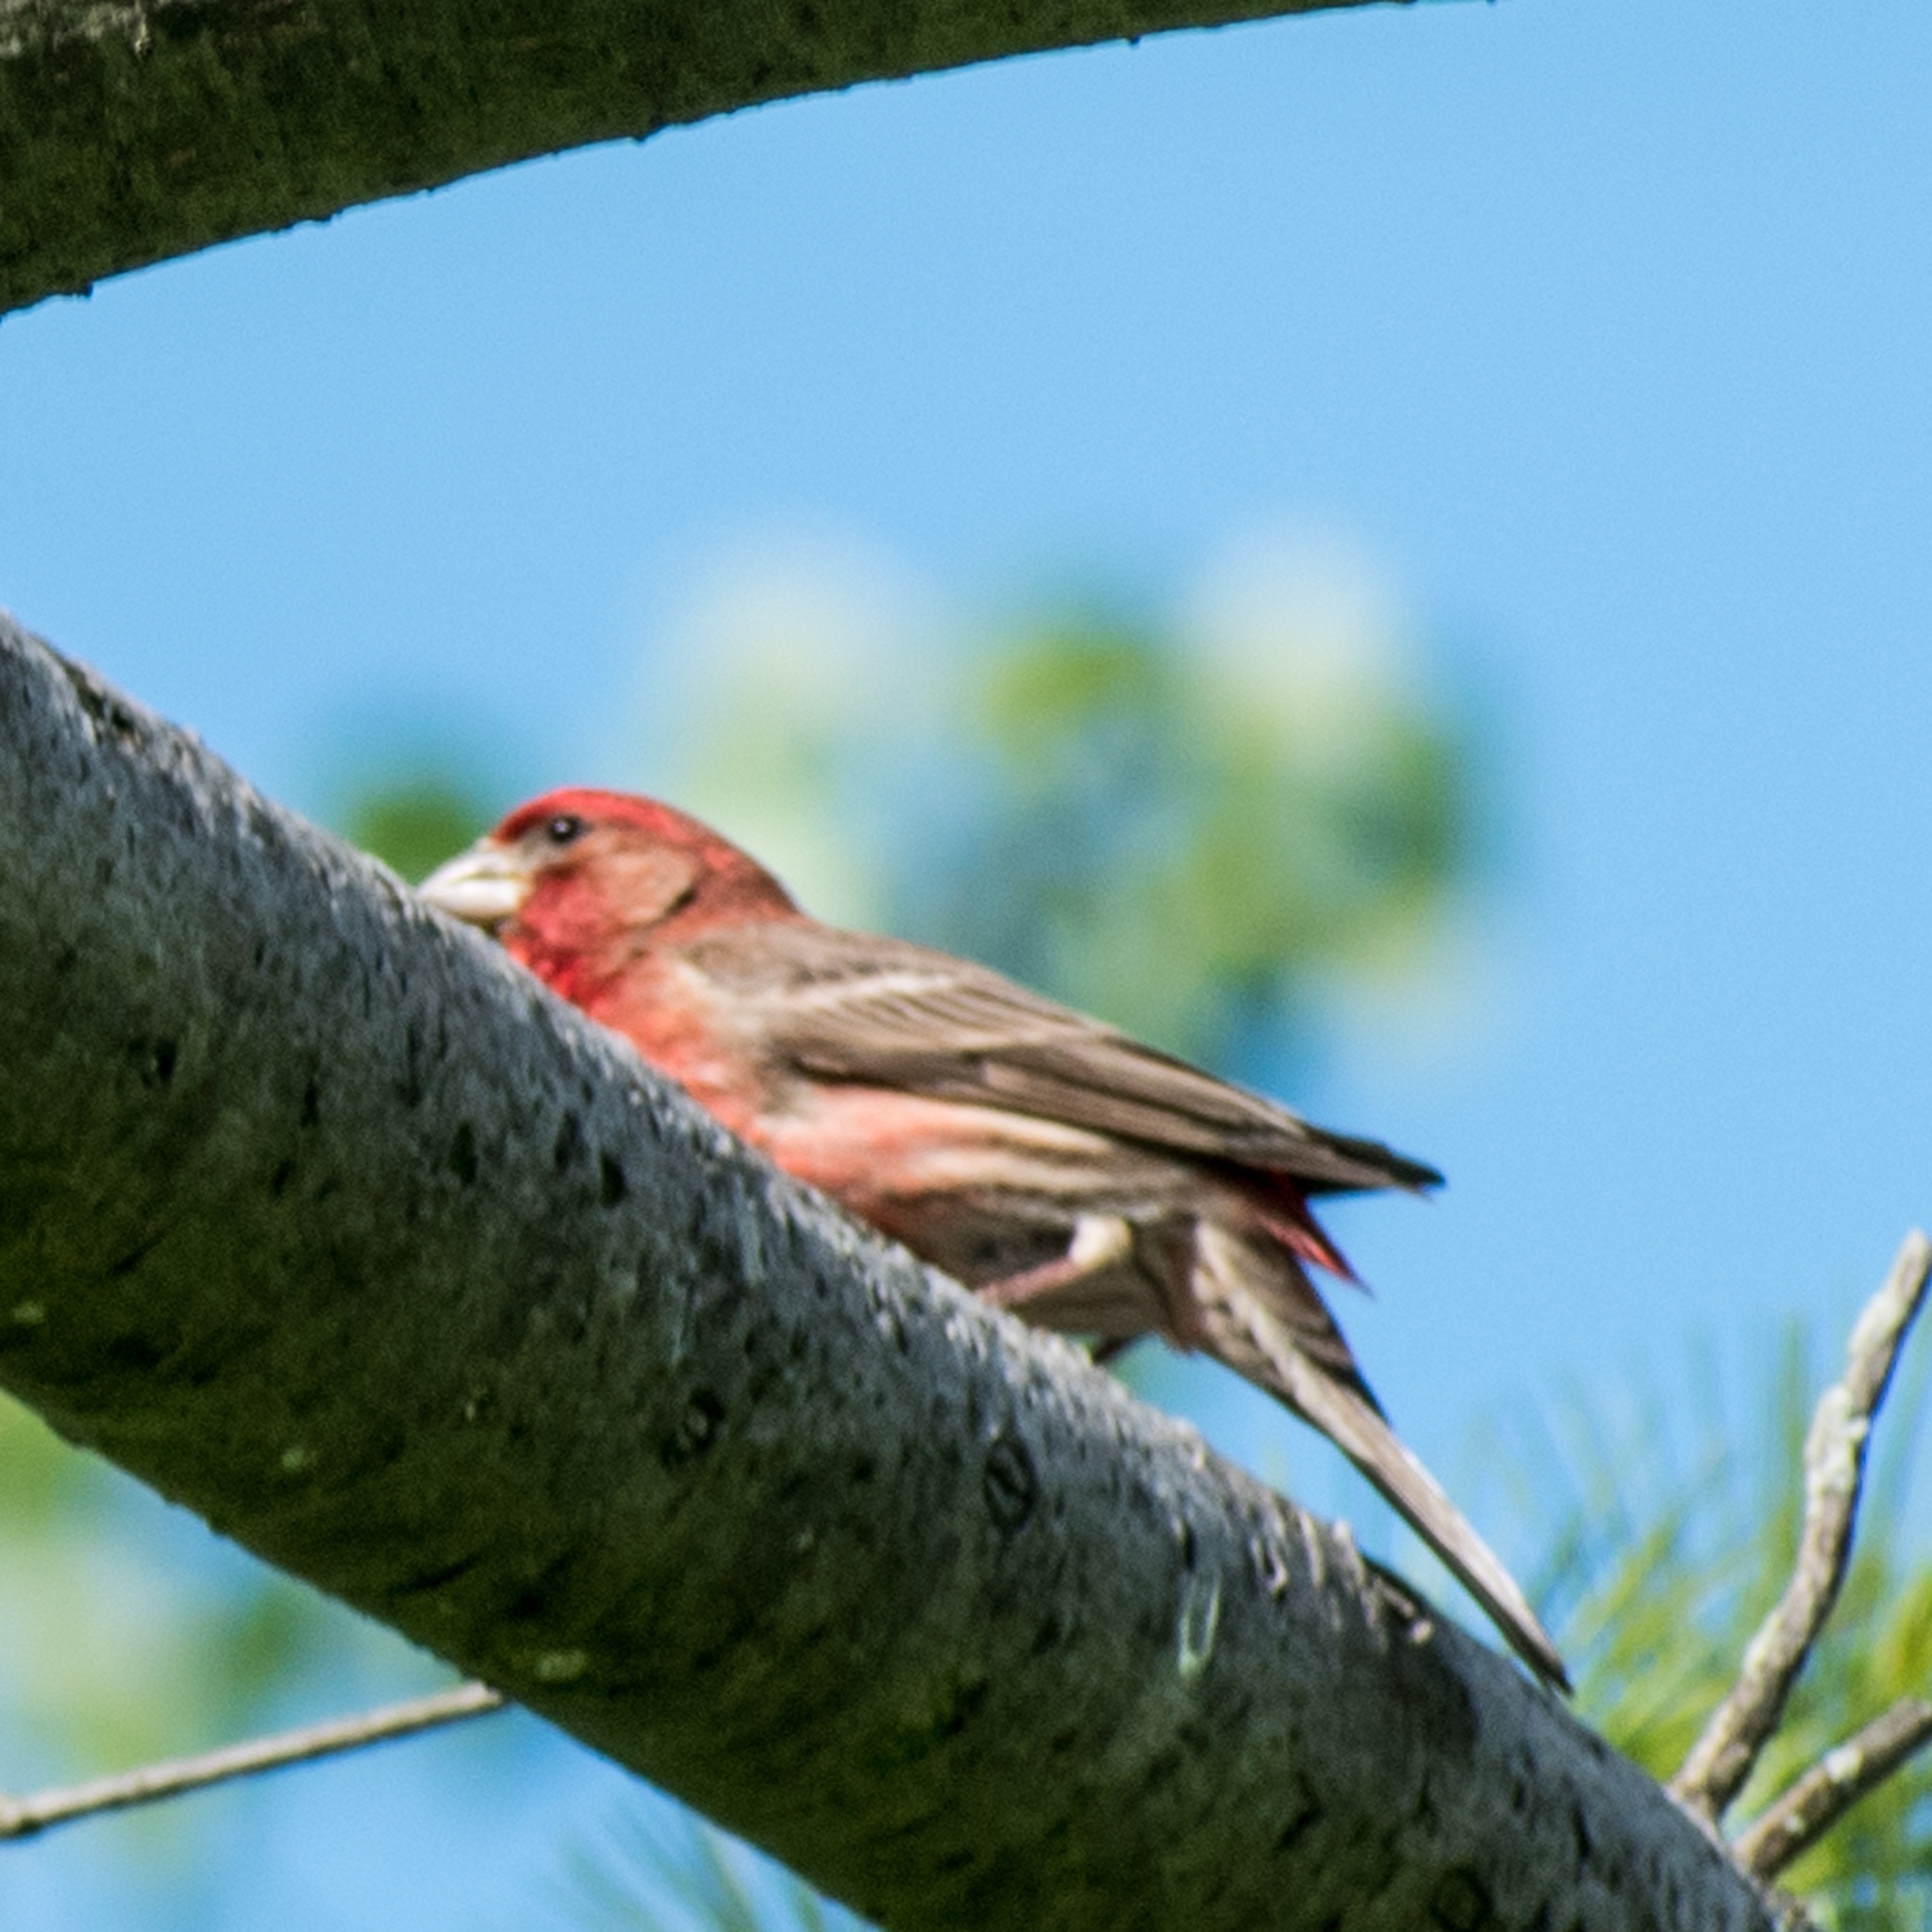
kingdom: Animalia
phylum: Chordata
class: Aves
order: Passeriformes
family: Fringillidae
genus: Haemorhous
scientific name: Haemorhous mexicanus
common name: House finch
